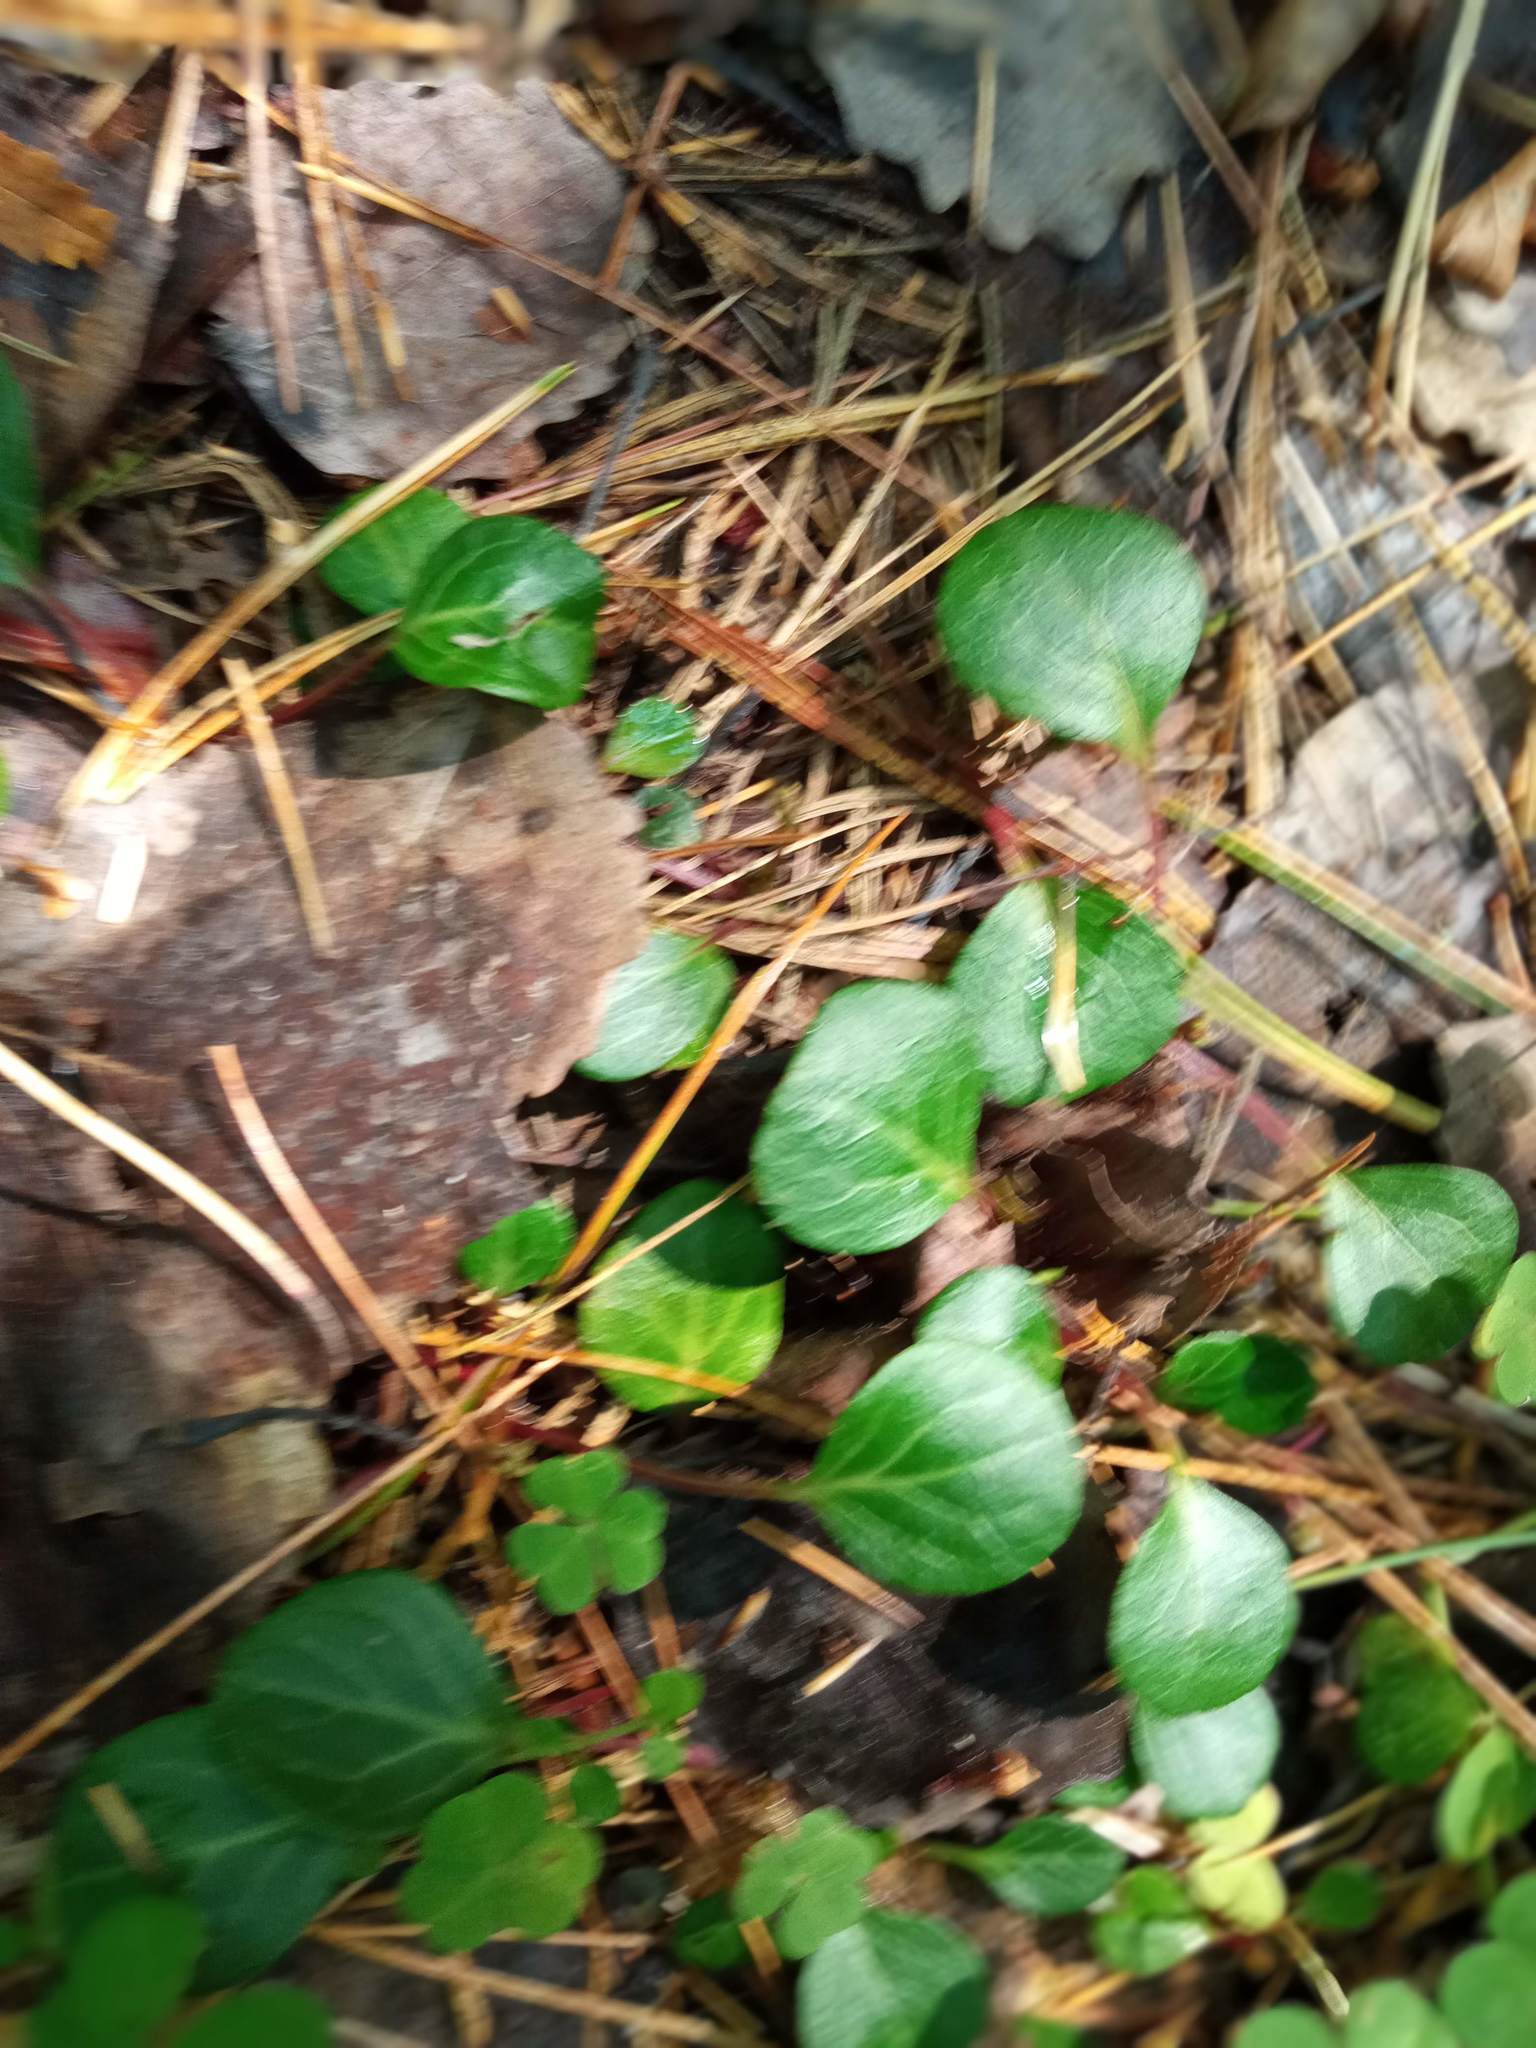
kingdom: Plantae
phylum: Tracheophyta
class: Magnoliopsida
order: Ericales
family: Ericaceae
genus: Pyrola
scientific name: Pyrola chlorantha
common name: Green wintergreen
